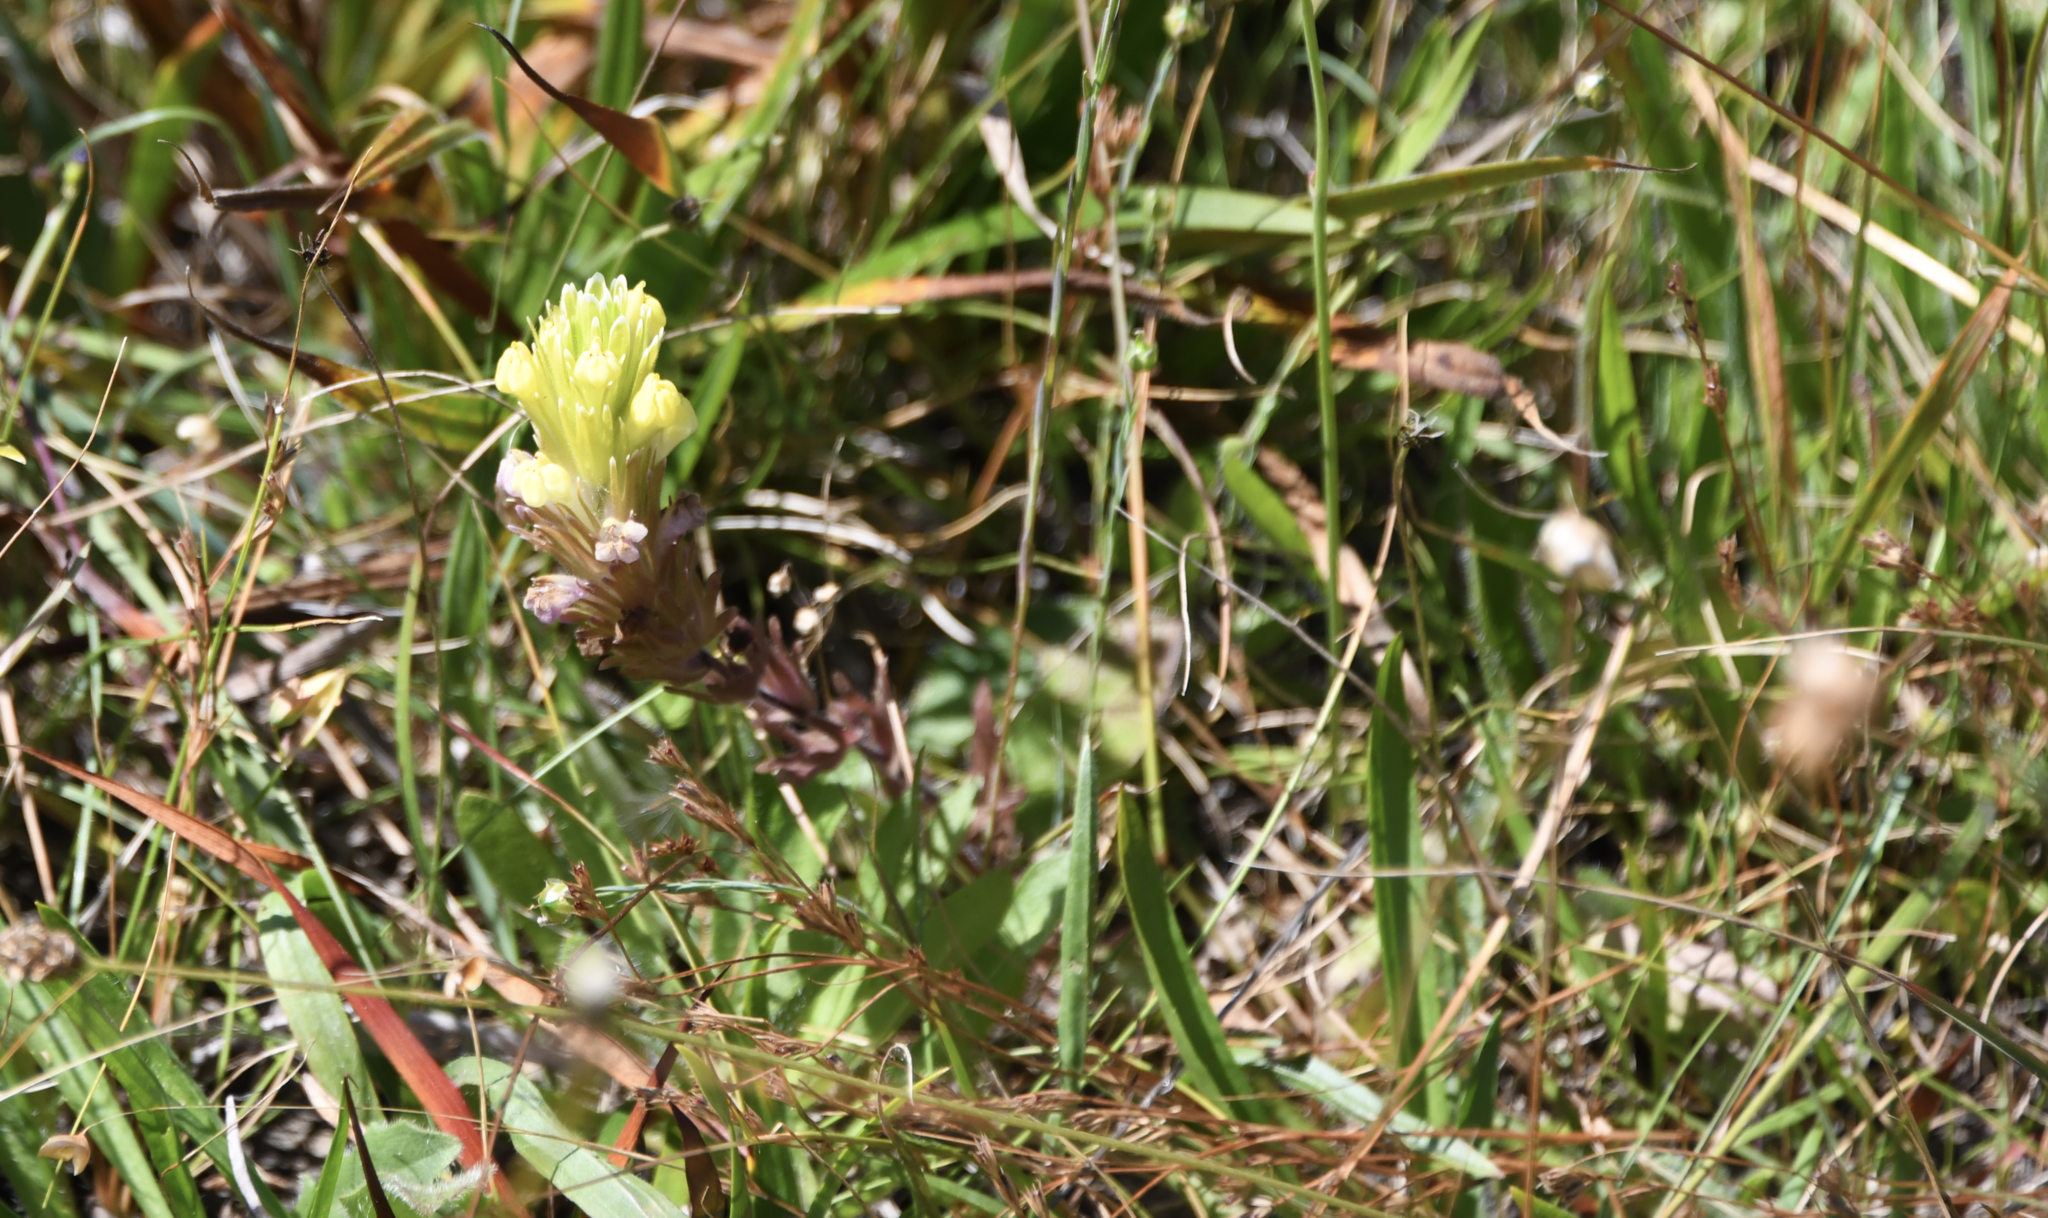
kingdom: Plantae
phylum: Tracheophyta
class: Magnoliopsida
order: Lamiales
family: Orobanchaceae
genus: Castilleja
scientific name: Castilleja ambigua
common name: Johnny-nip
